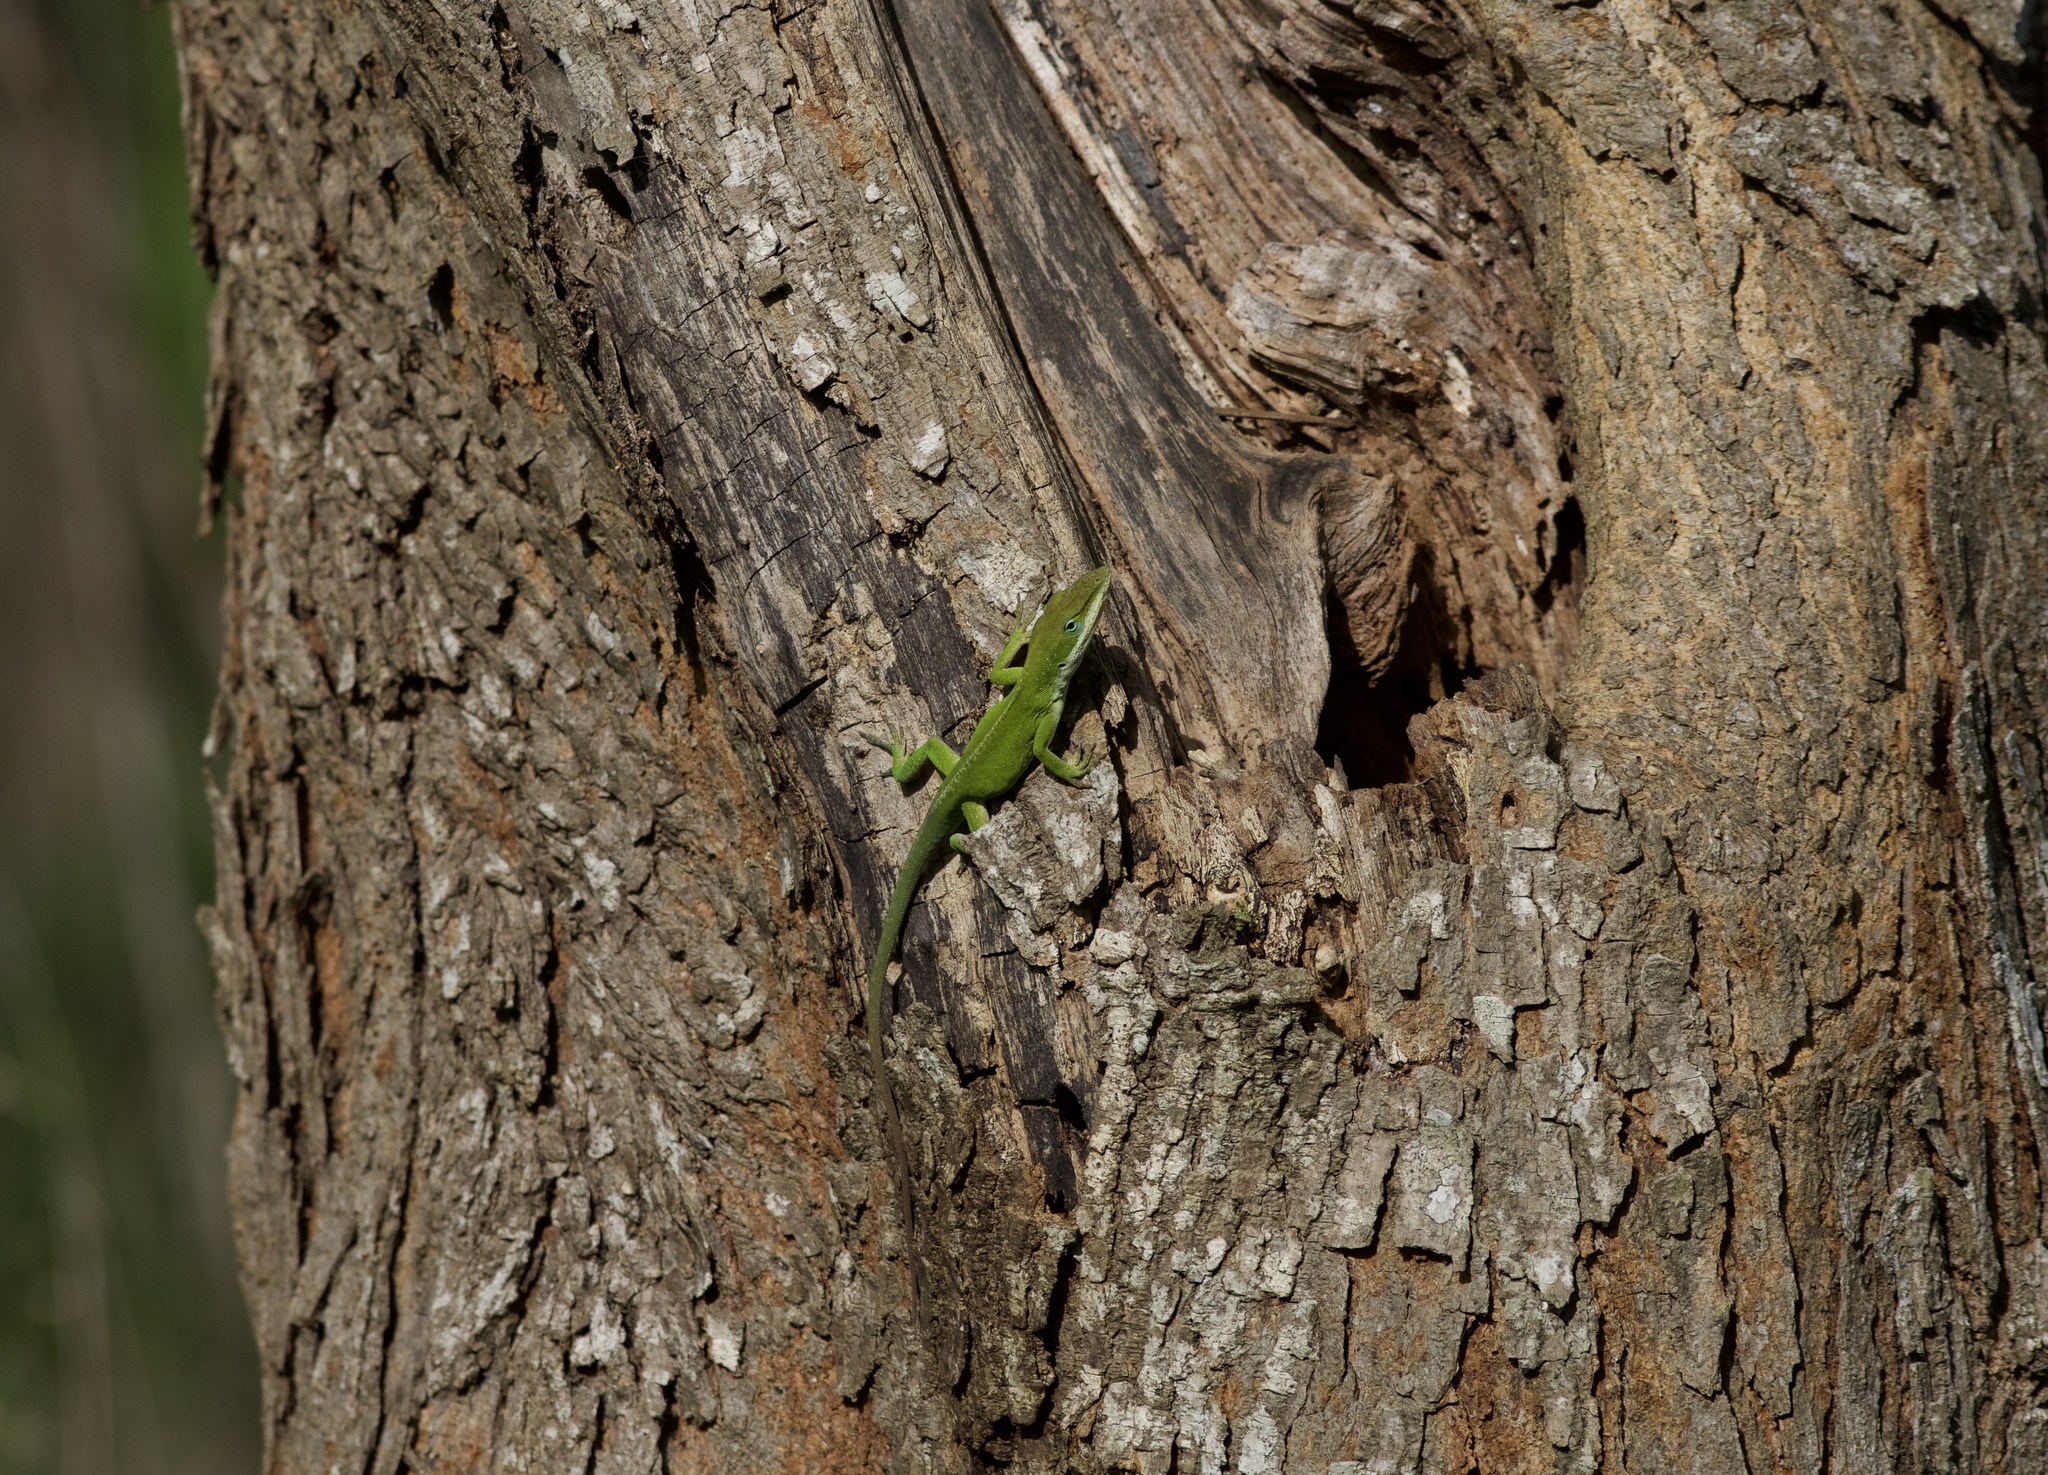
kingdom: Animalia
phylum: Chordata
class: Squamata
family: Dactyloidae
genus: Anolis
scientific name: Anolis carolinensis
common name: Green anole
